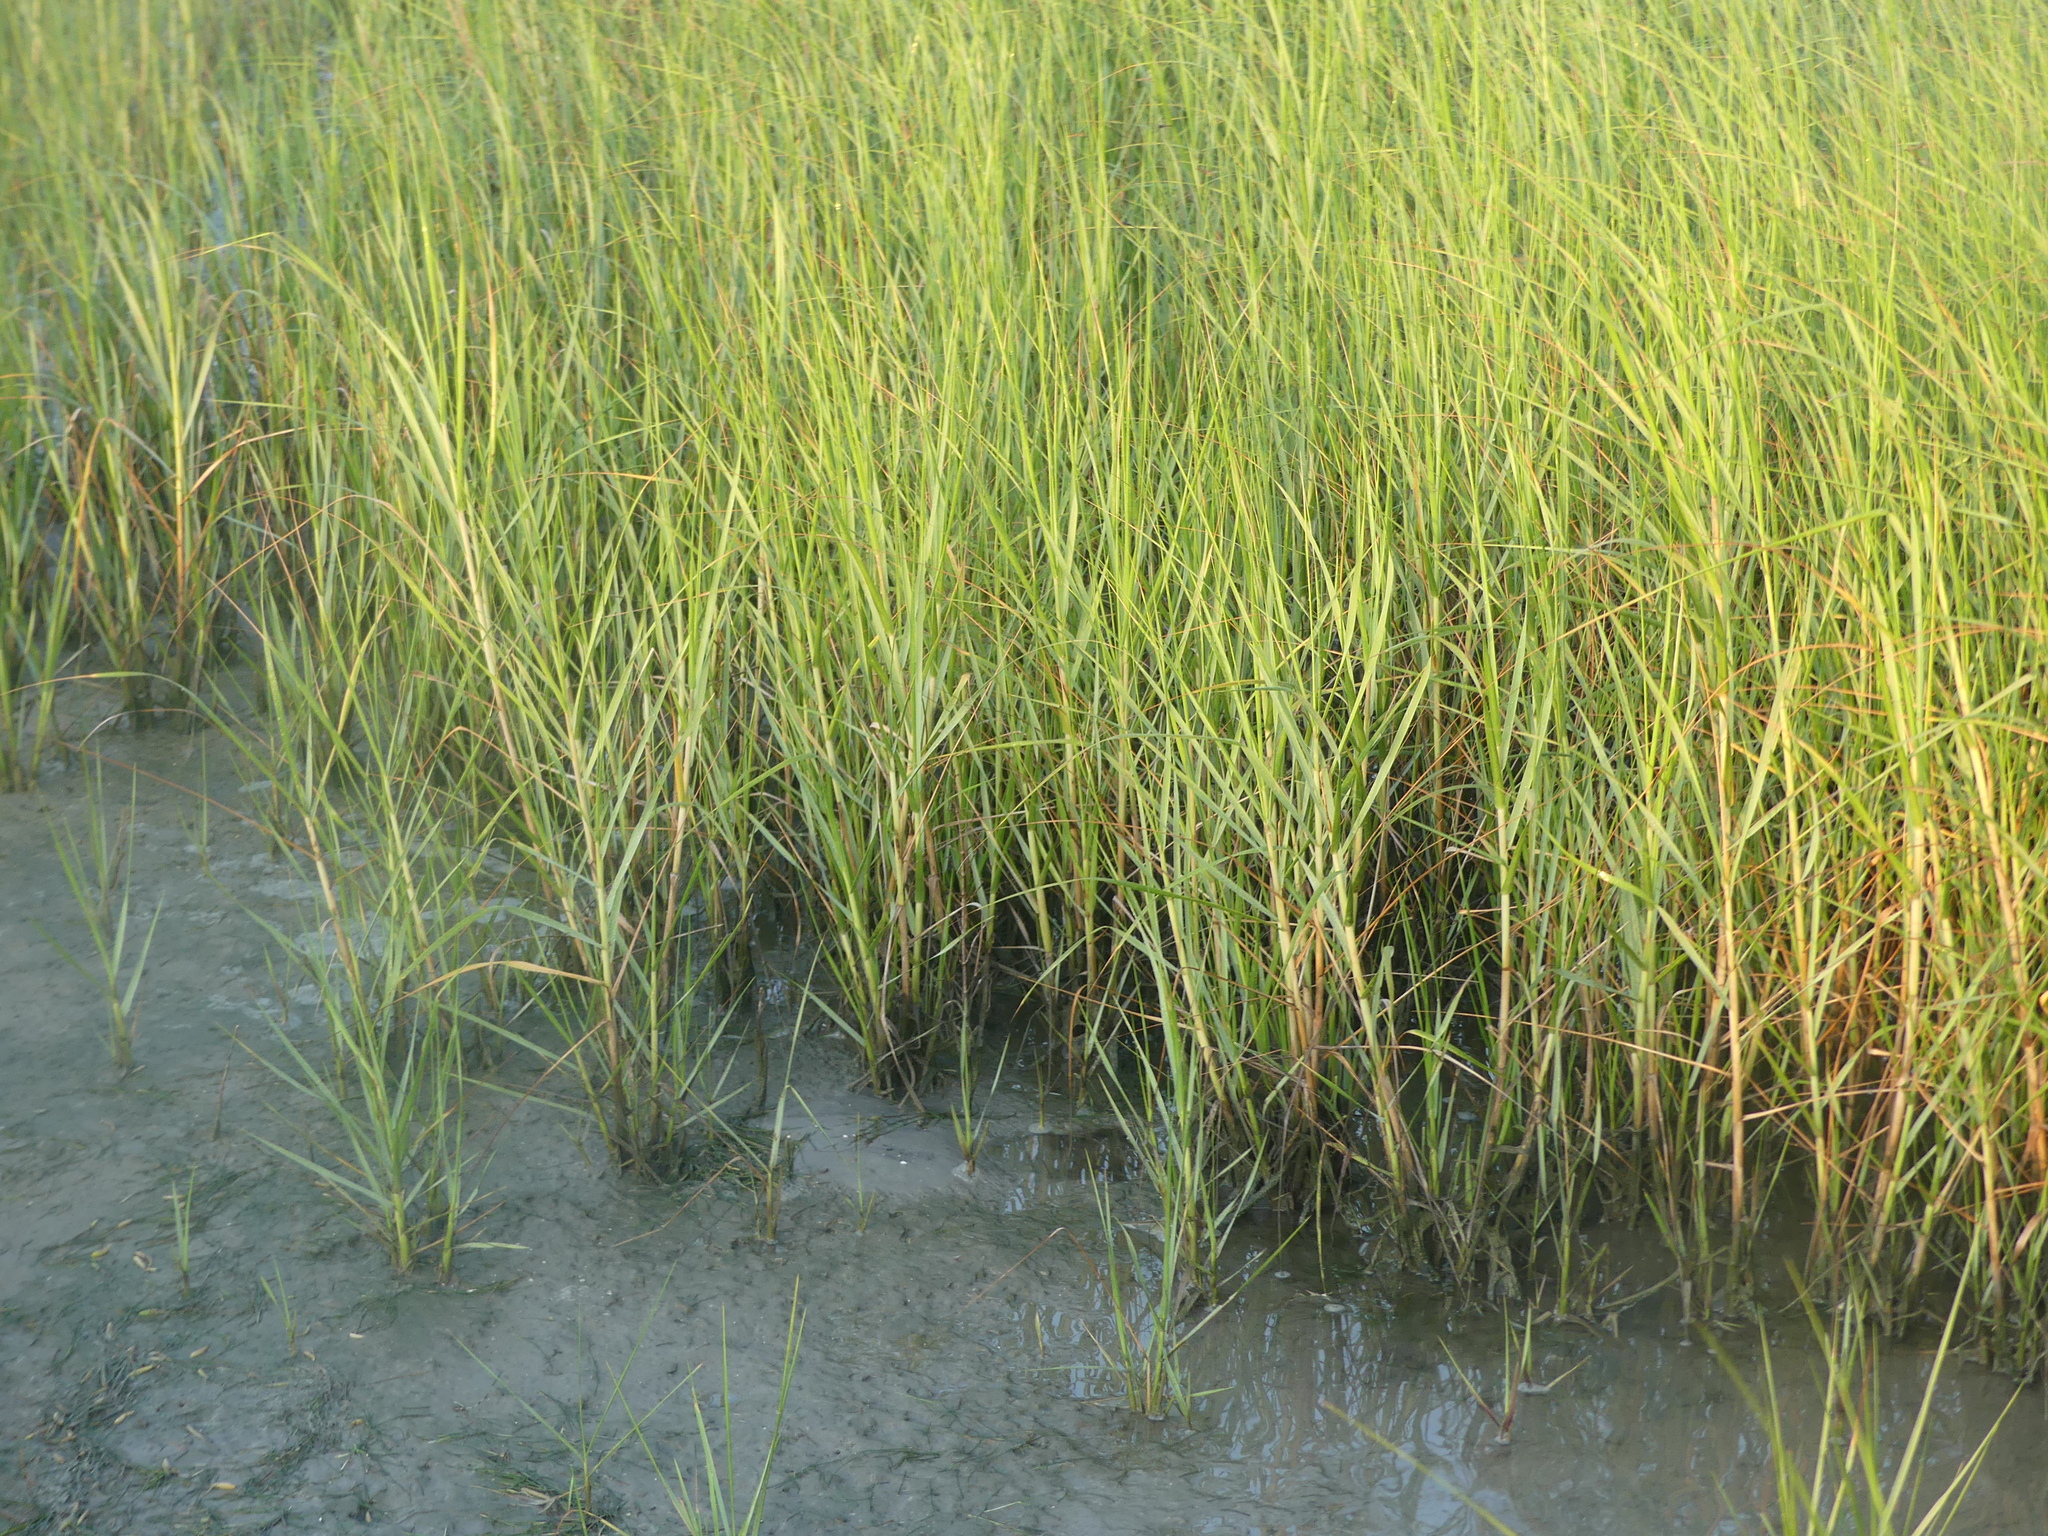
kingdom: Plantae
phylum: Tracheophyta
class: Liliopsida
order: Poales
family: Poaceae
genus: Sporobolus
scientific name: Sporobolus alterniflorus
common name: Atlantic cordgrass
